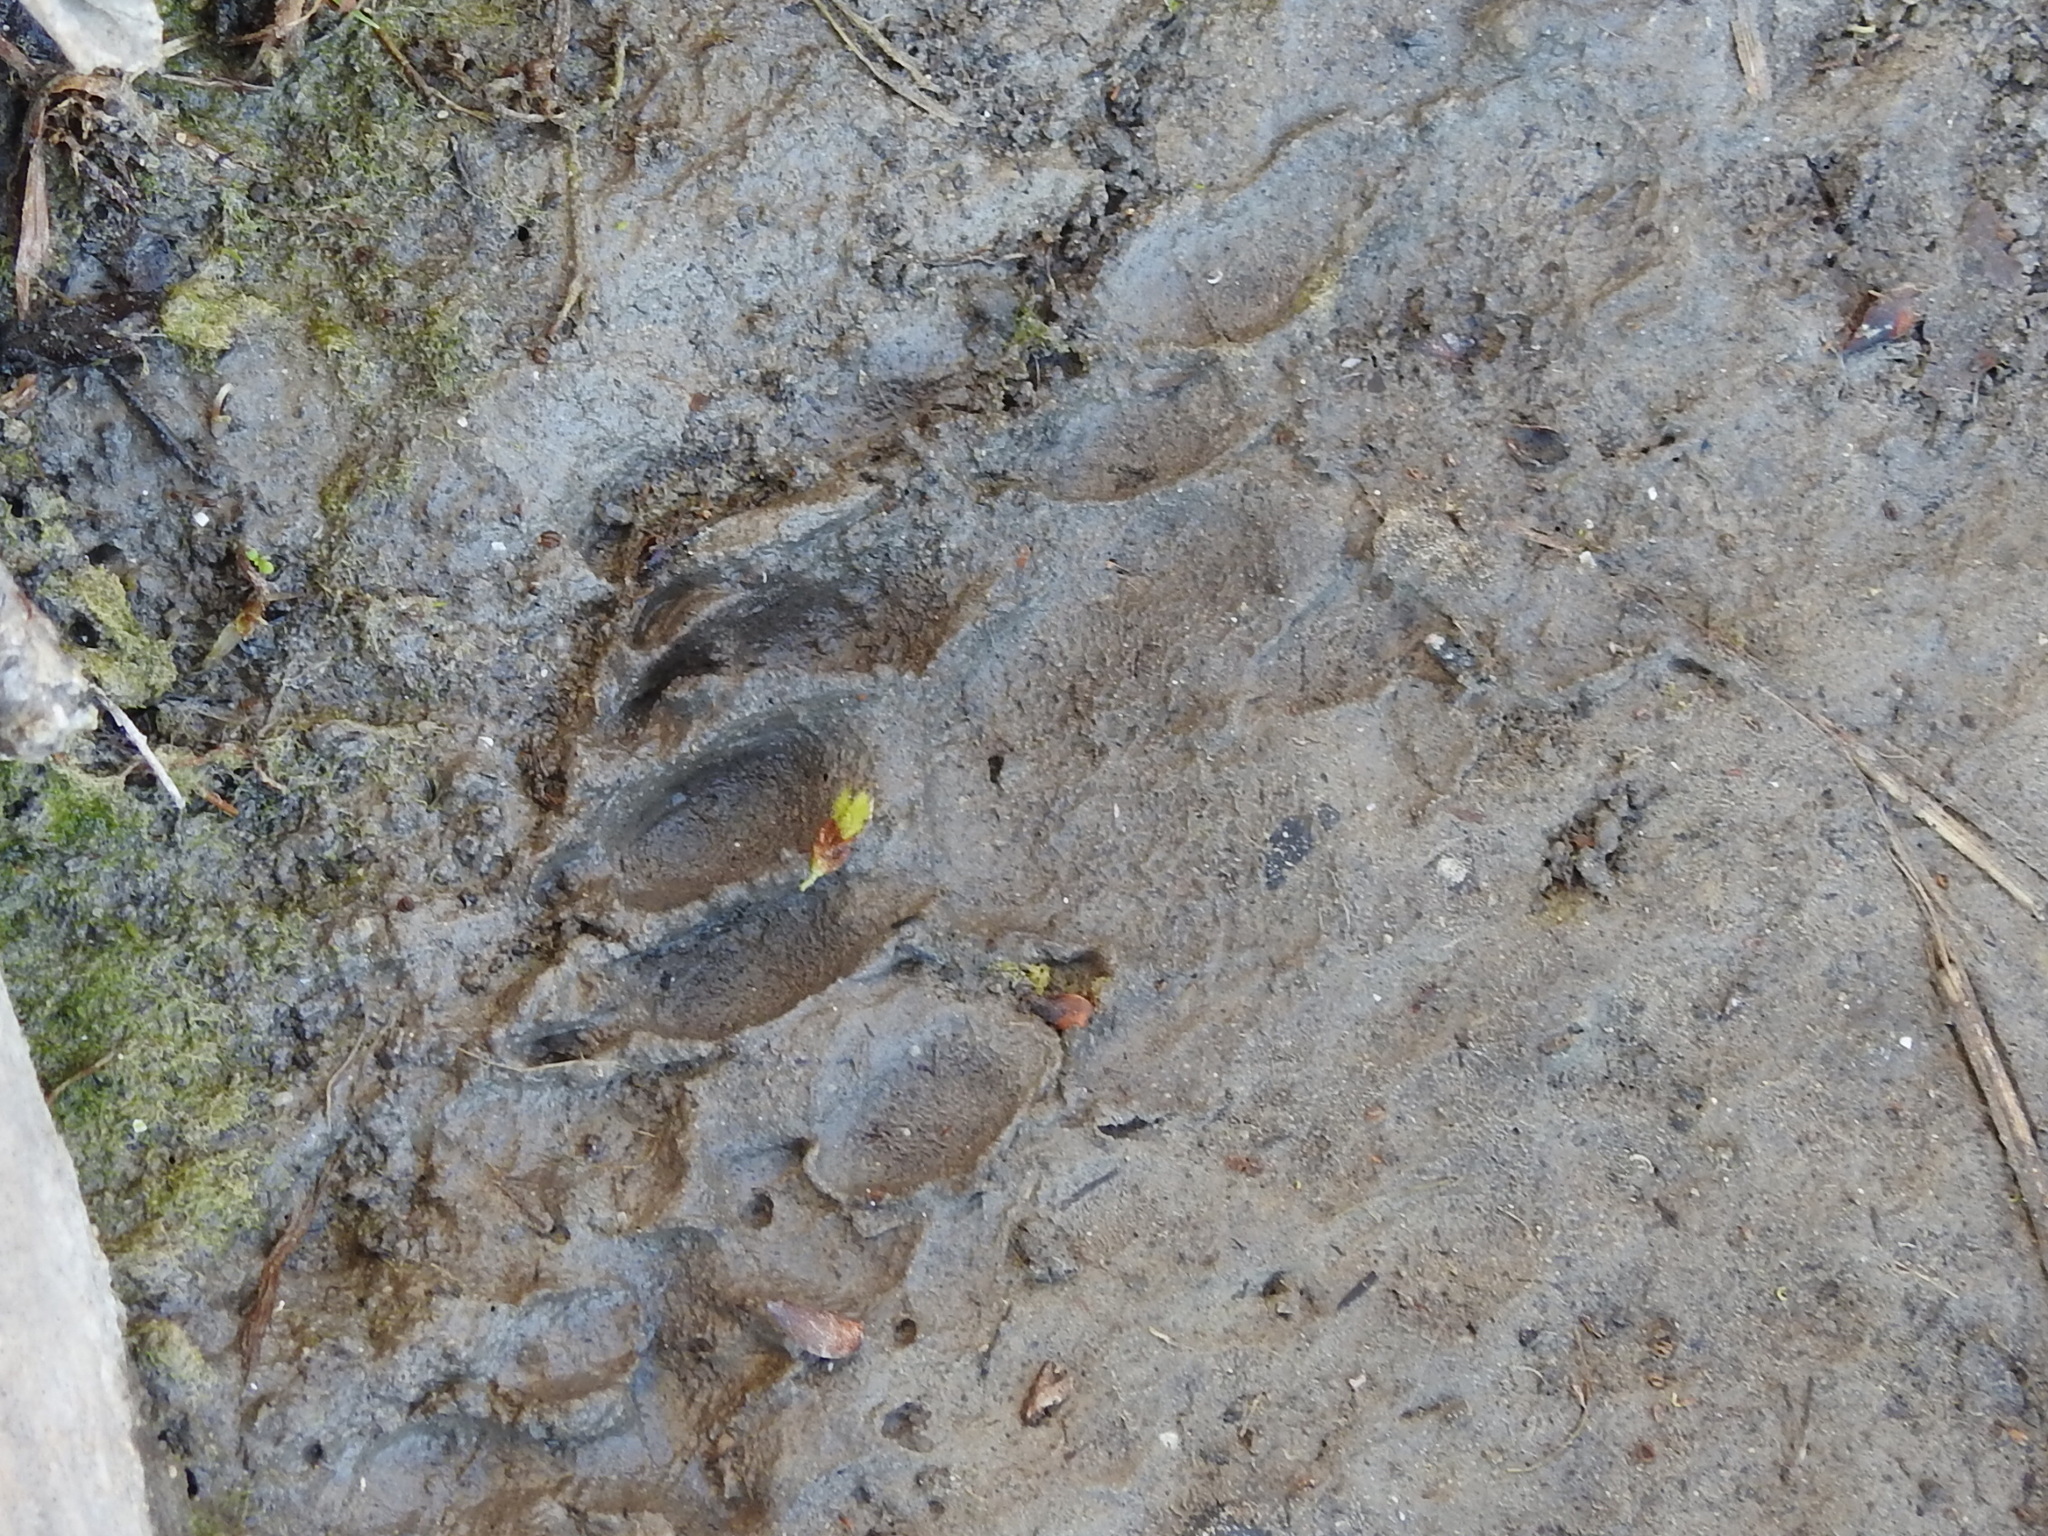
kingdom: Animalia
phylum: Chordata
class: Mammalia
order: Carnivora
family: Procyonidae
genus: Procyon
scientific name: Procyon lotor
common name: Raccoon
